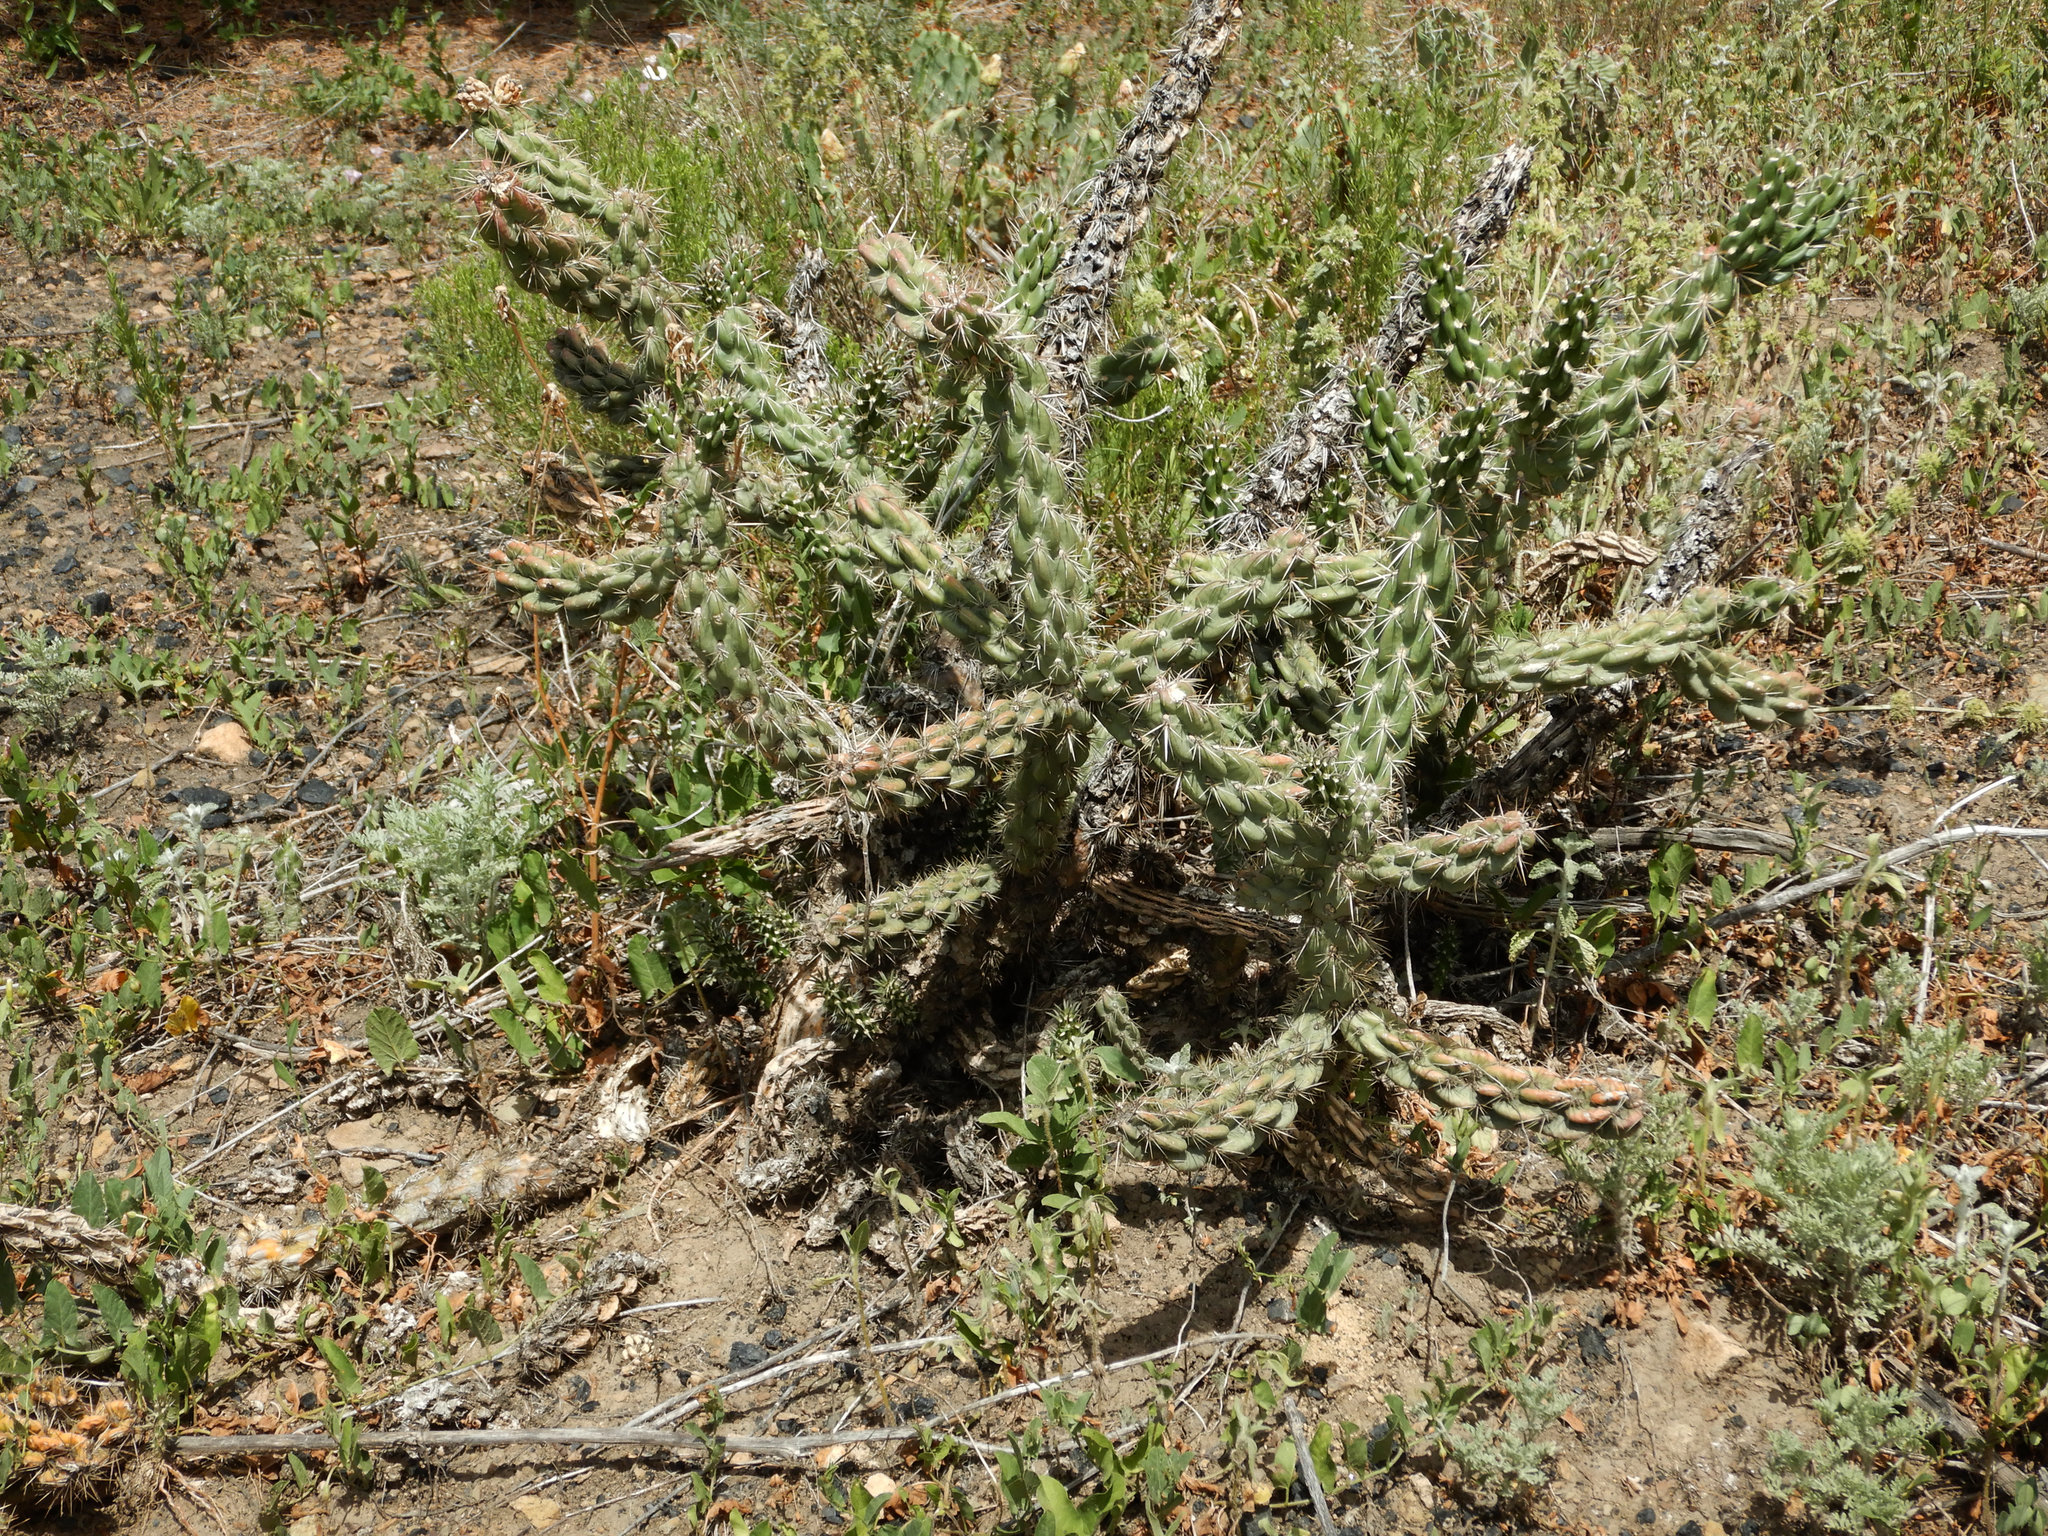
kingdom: Plantae
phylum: Tracheophyta
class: Magnoliopsida
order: Caryophyllales
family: Cactaceae
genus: Cylindropuntia
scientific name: Cylindropuntia imbricata
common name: Candelabrum cactus
